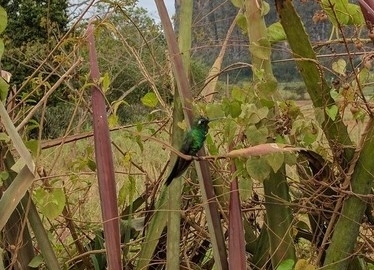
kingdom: Animalia
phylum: Chordata
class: Aves
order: Apodiformes
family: Trochilidae
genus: Riccordia
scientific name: Riccordia ricordii
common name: Cuban emerald
